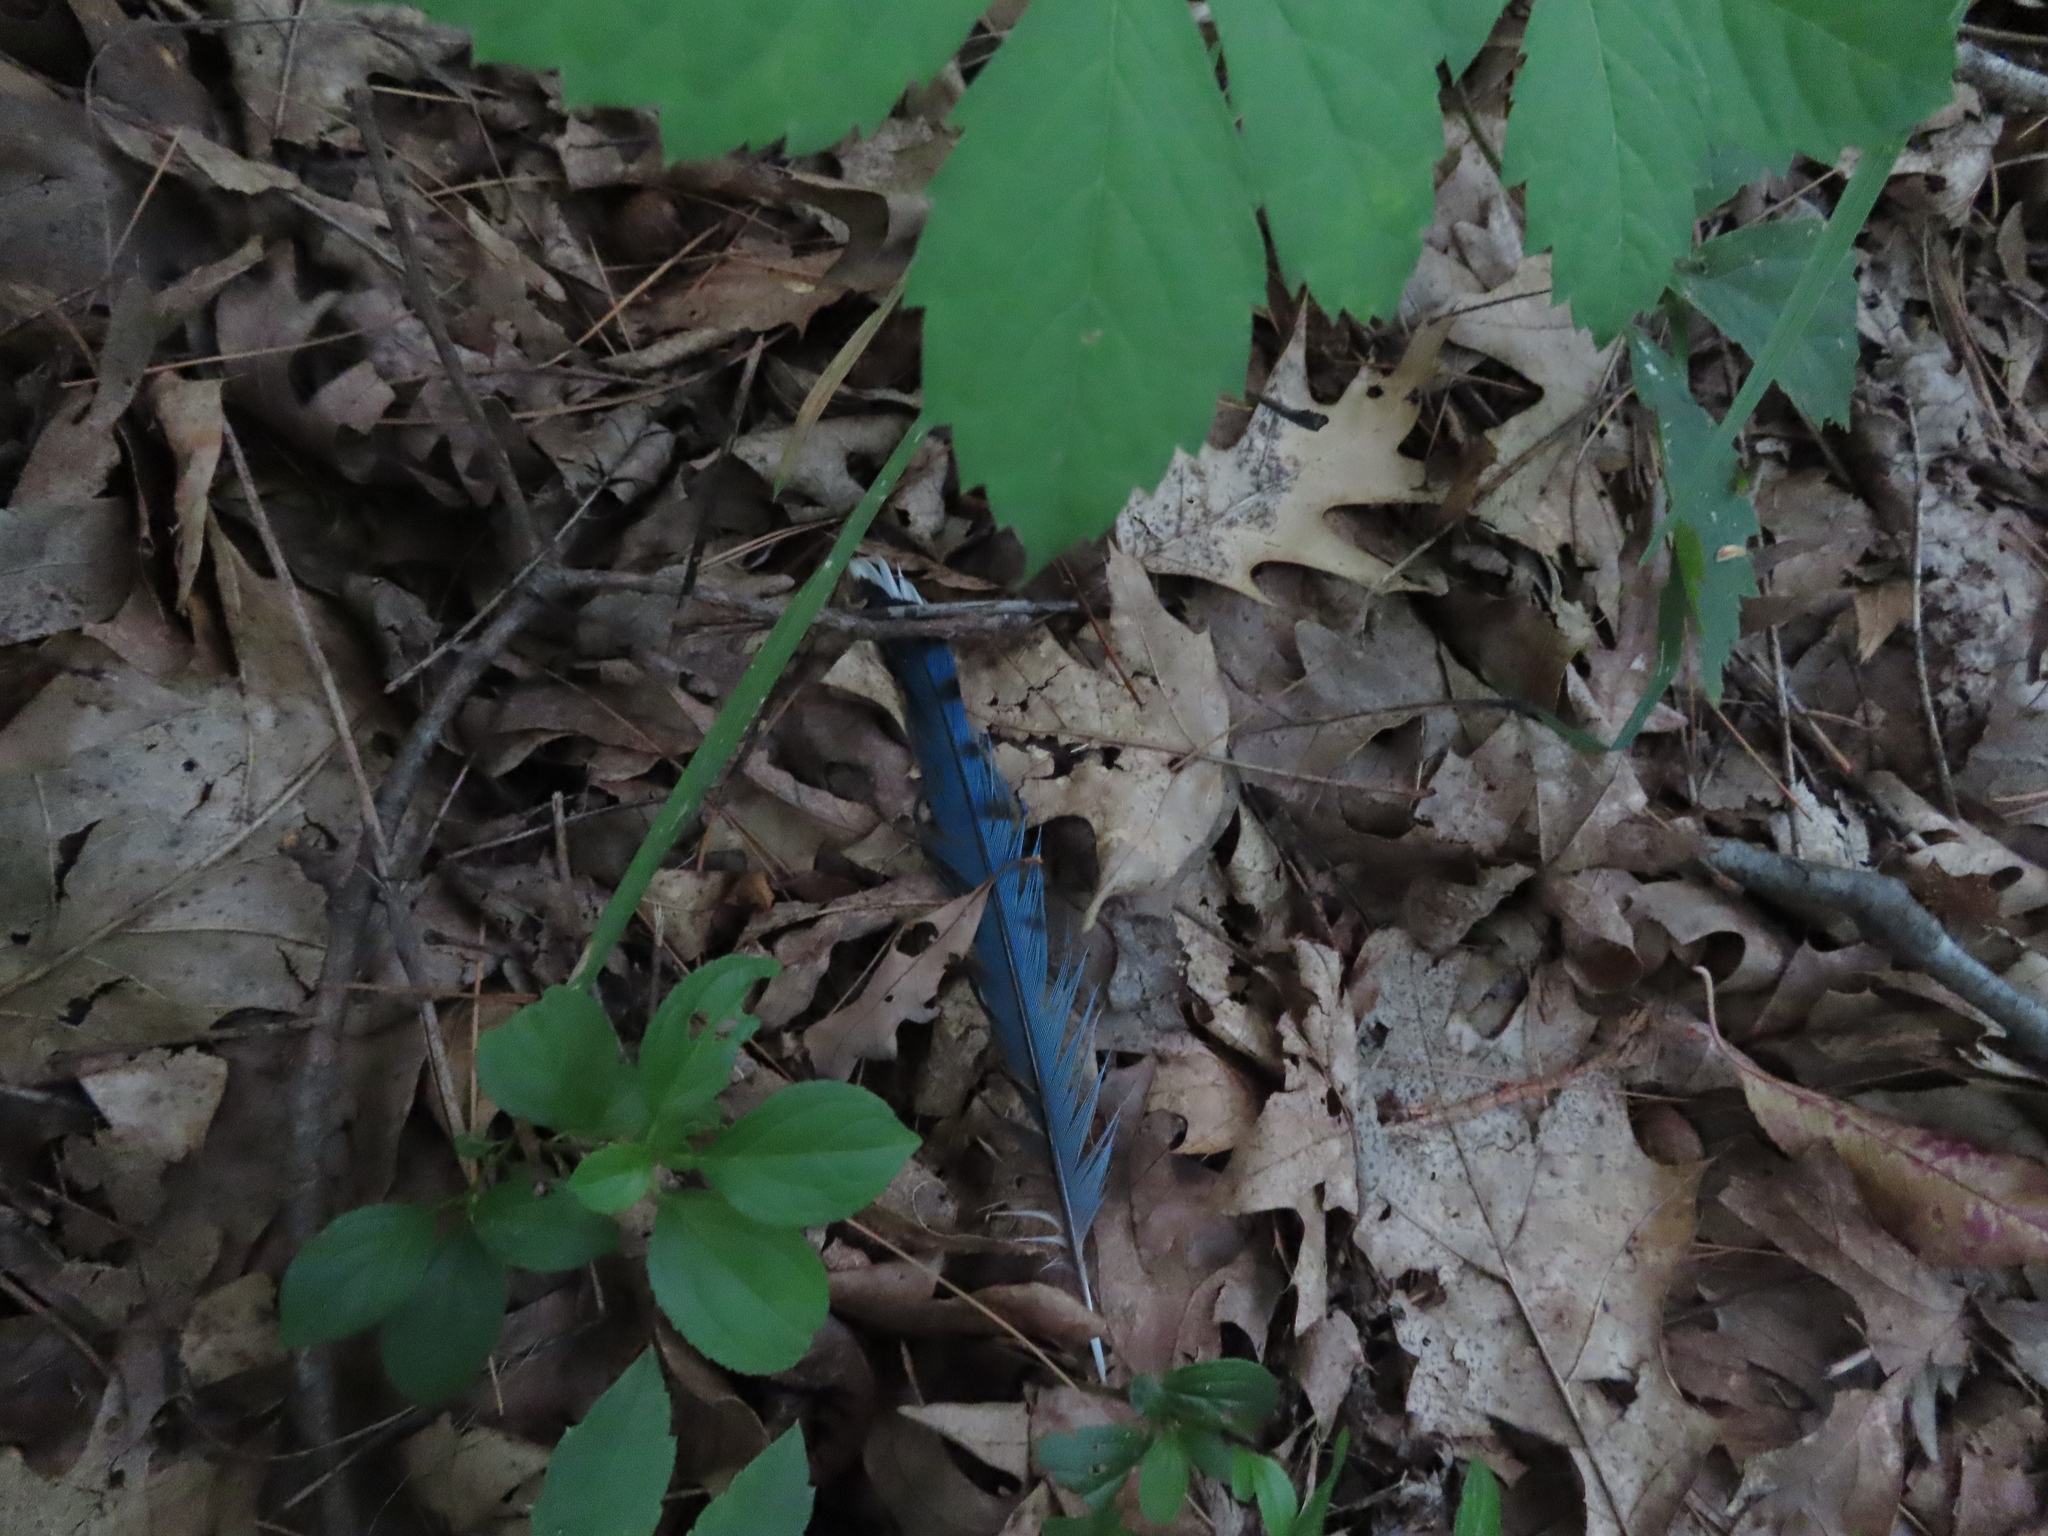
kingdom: Animalia
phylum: Chordata
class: Aves
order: Passeriformes
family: Corvidae
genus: Cyanocitta
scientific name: Cyanocitta cristata
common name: Blue jay
